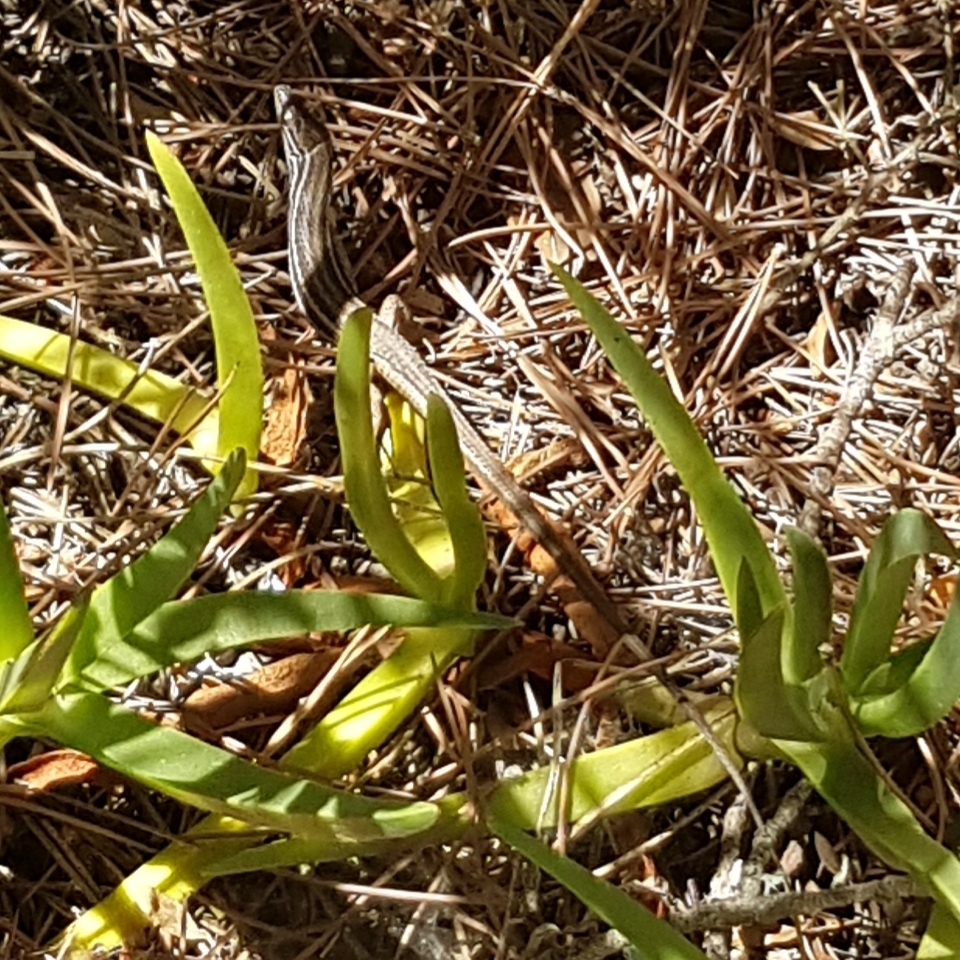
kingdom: Animalia
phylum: Chordata
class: Squamata
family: Lacertidae
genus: Psammodromus
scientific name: Psammodromus algirus
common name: Algerian psammodromus
